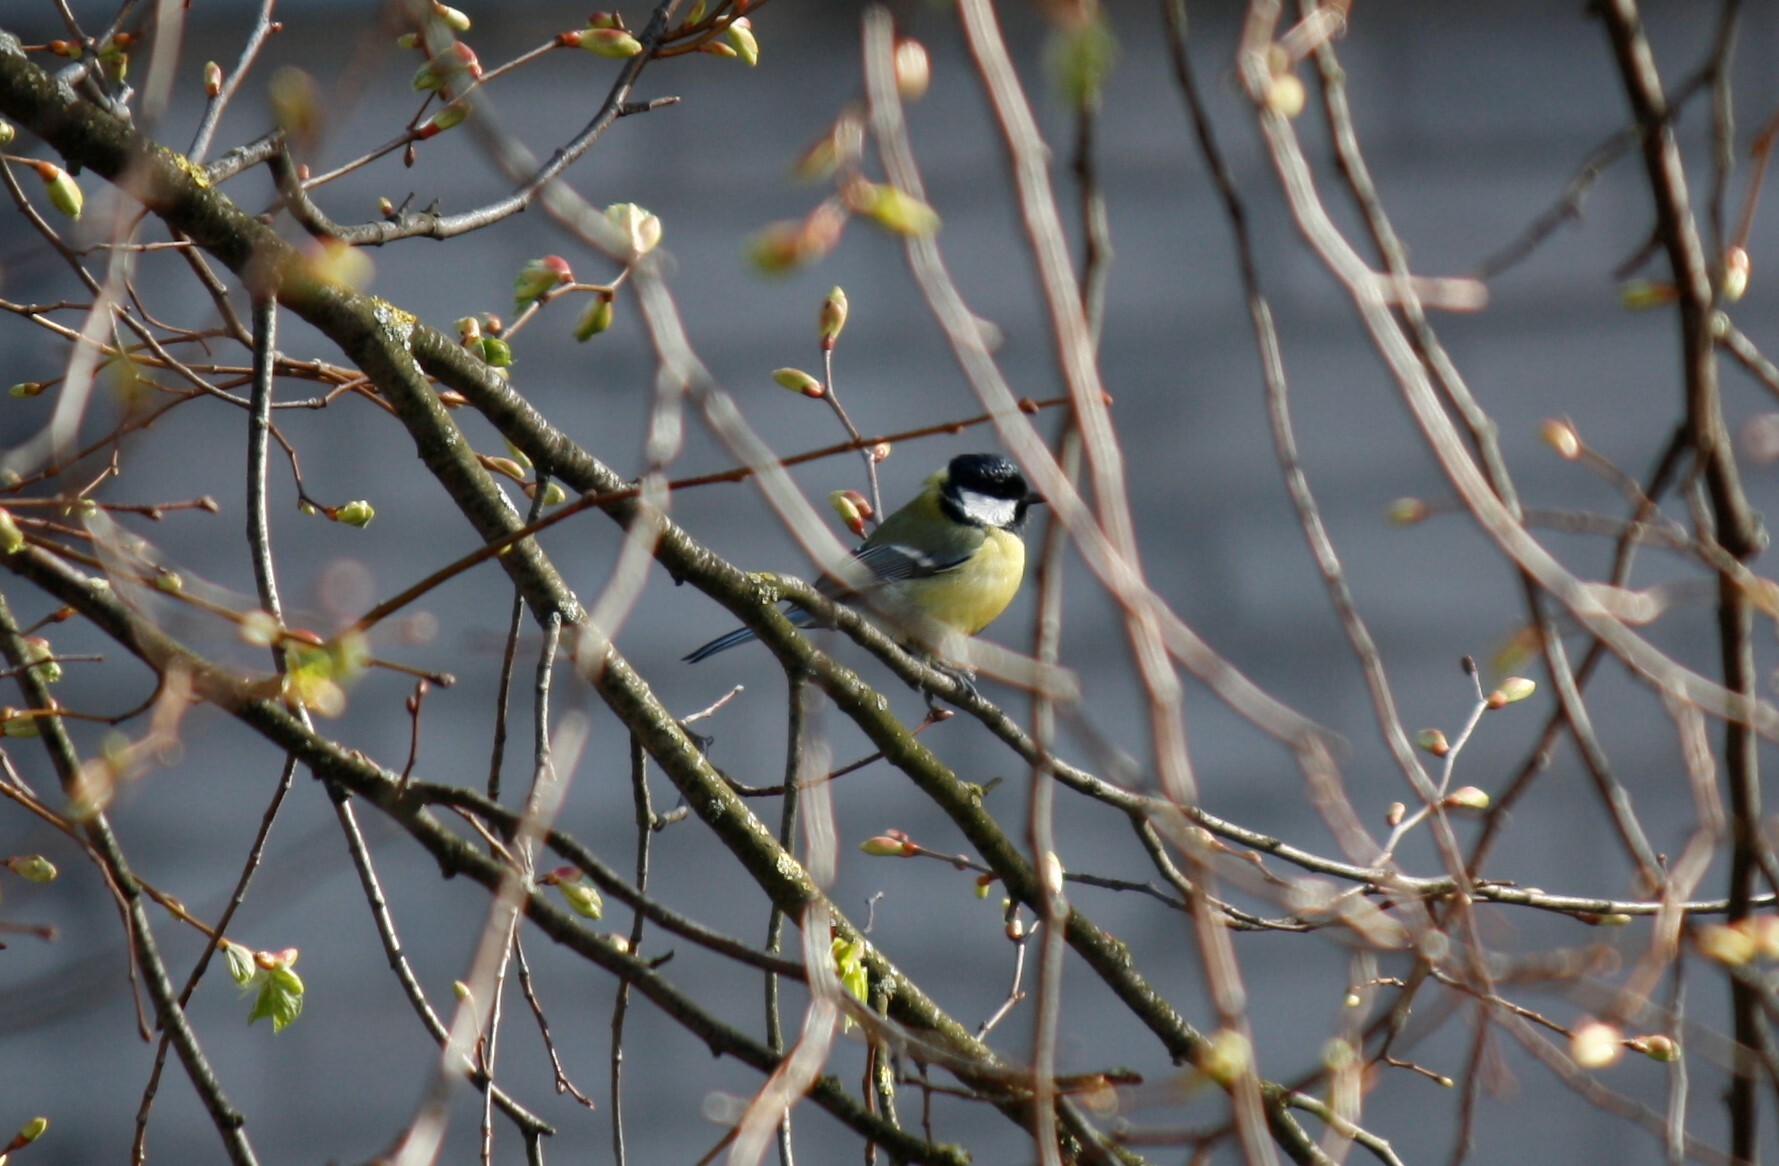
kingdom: Animalia
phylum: Chordata
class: Aves
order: Passeriformes
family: Paridae
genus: Parus
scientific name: Parus major
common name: Great tit
